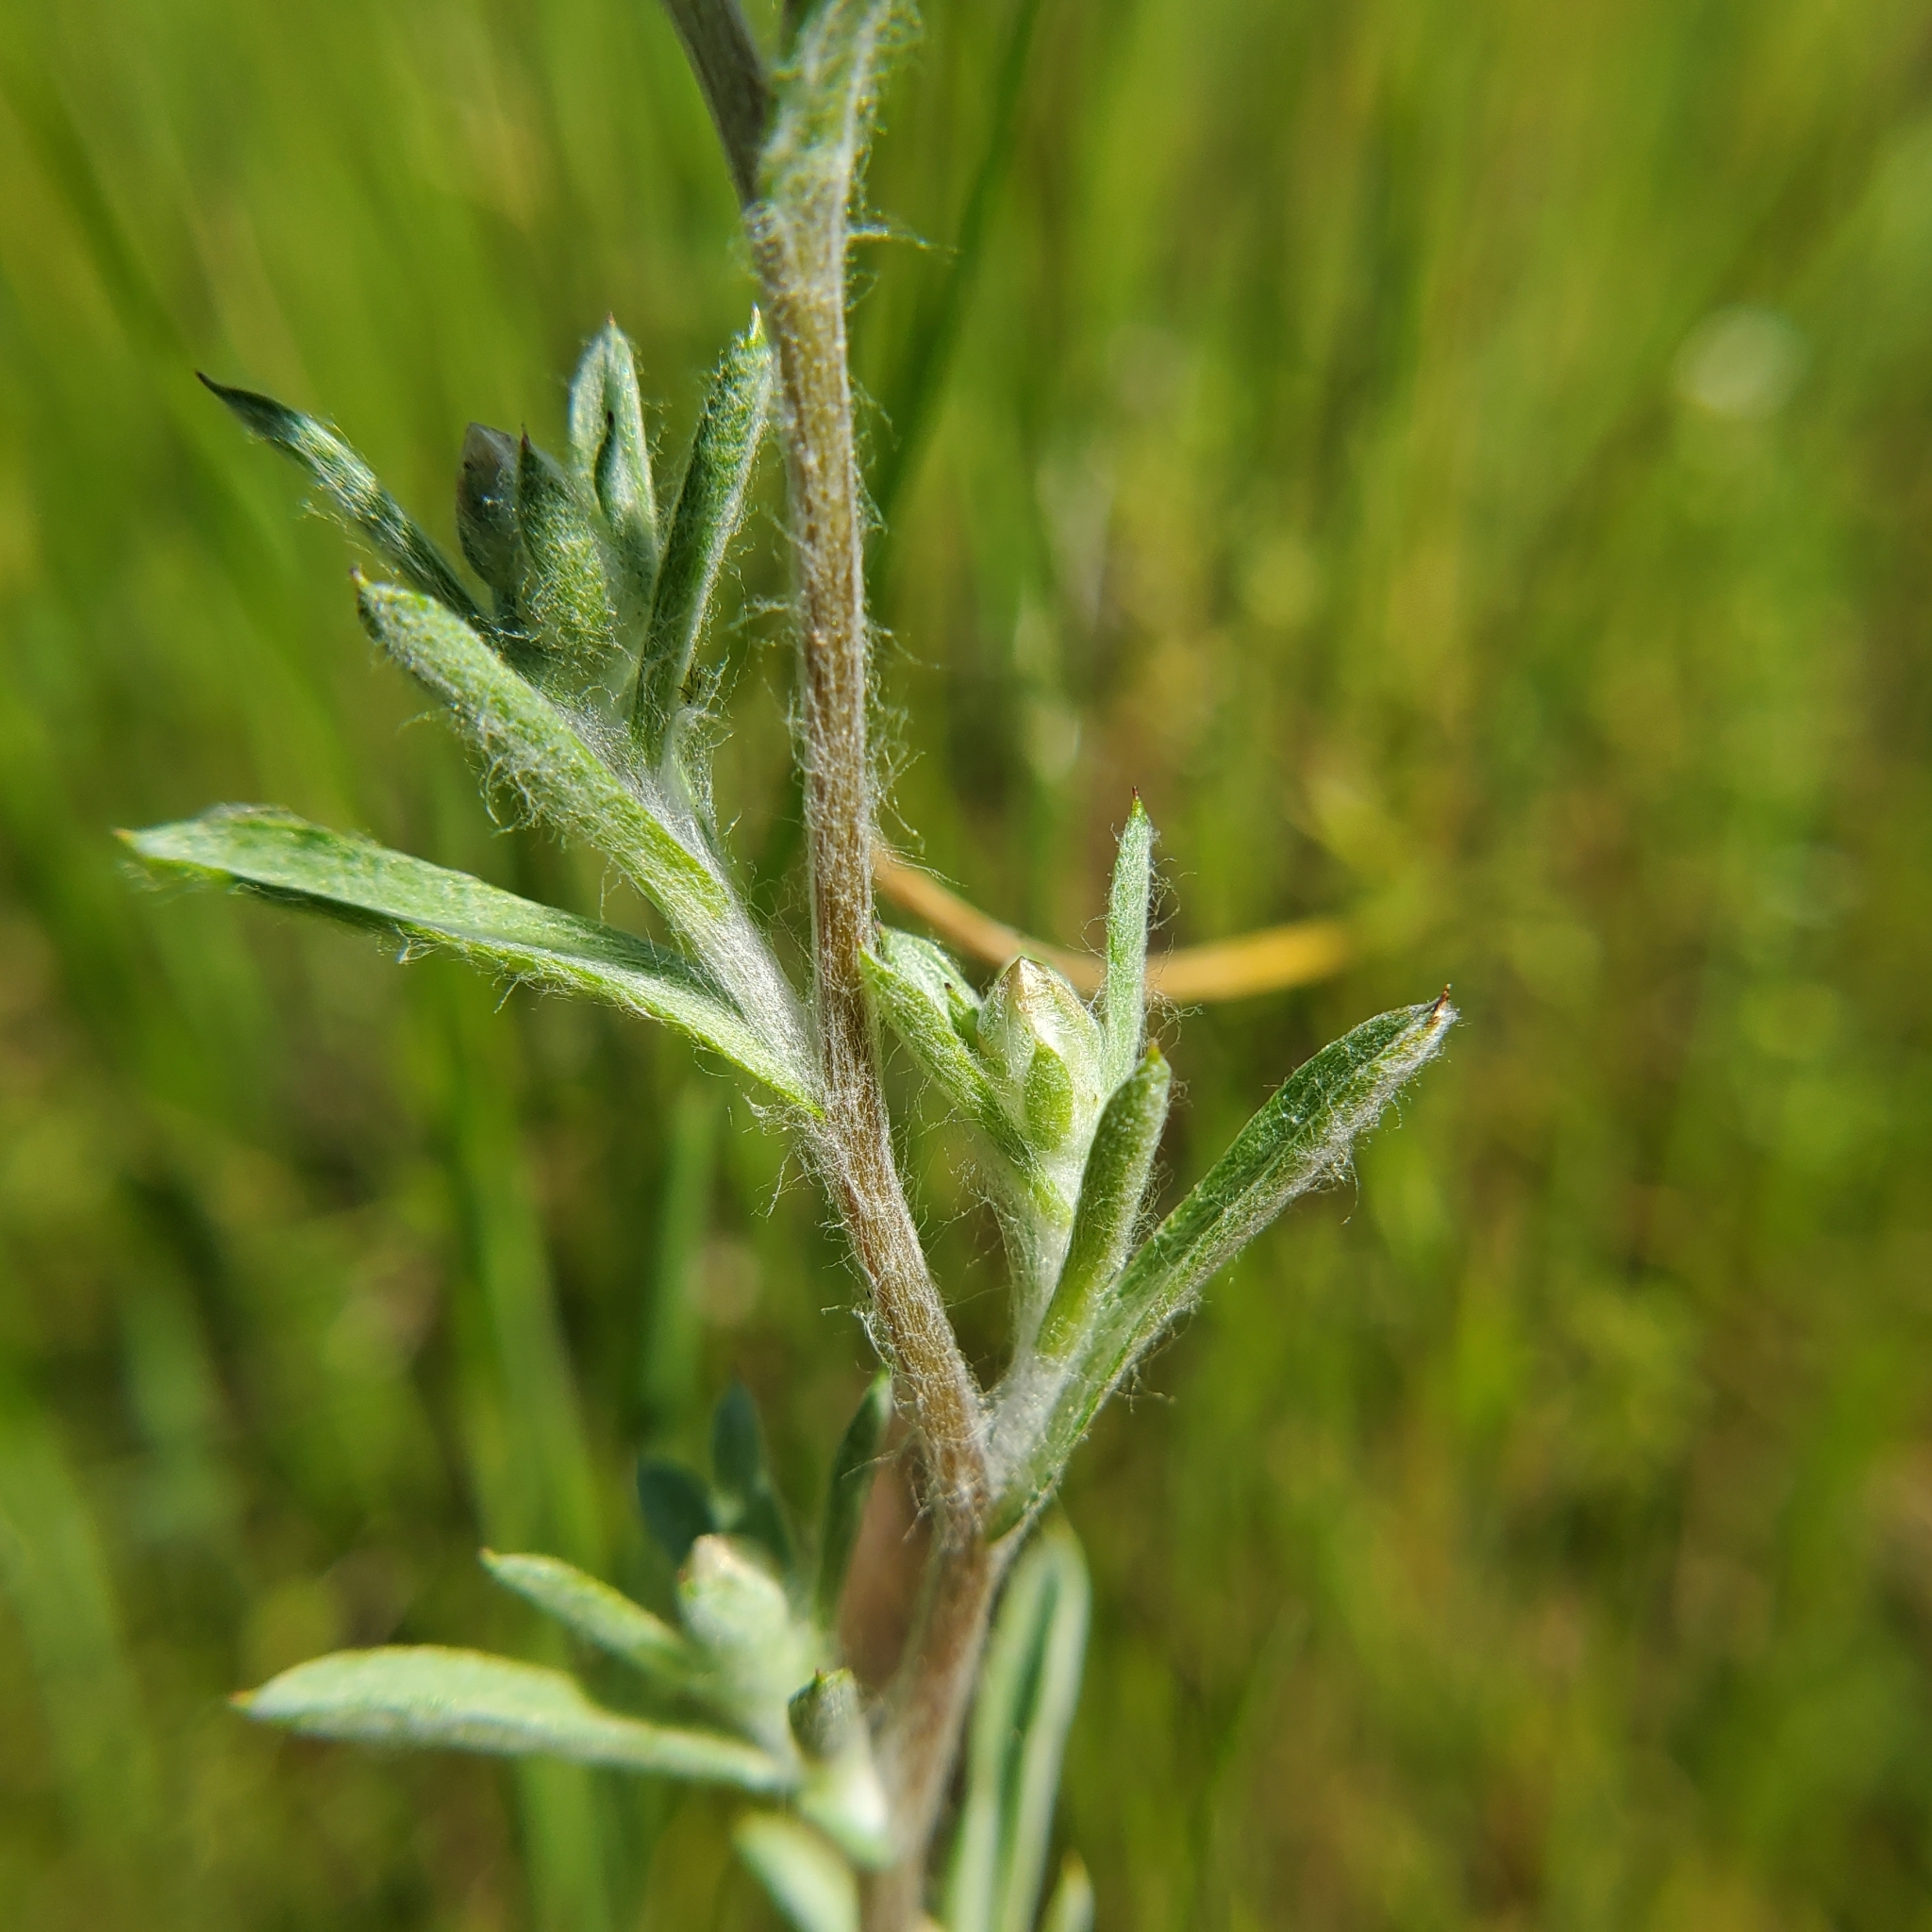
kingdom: Plantae
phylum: Tracheophyta
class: Magnoliopsida
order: Asterales
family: Asteraceae
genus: Logfia
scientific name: Logfia californica
